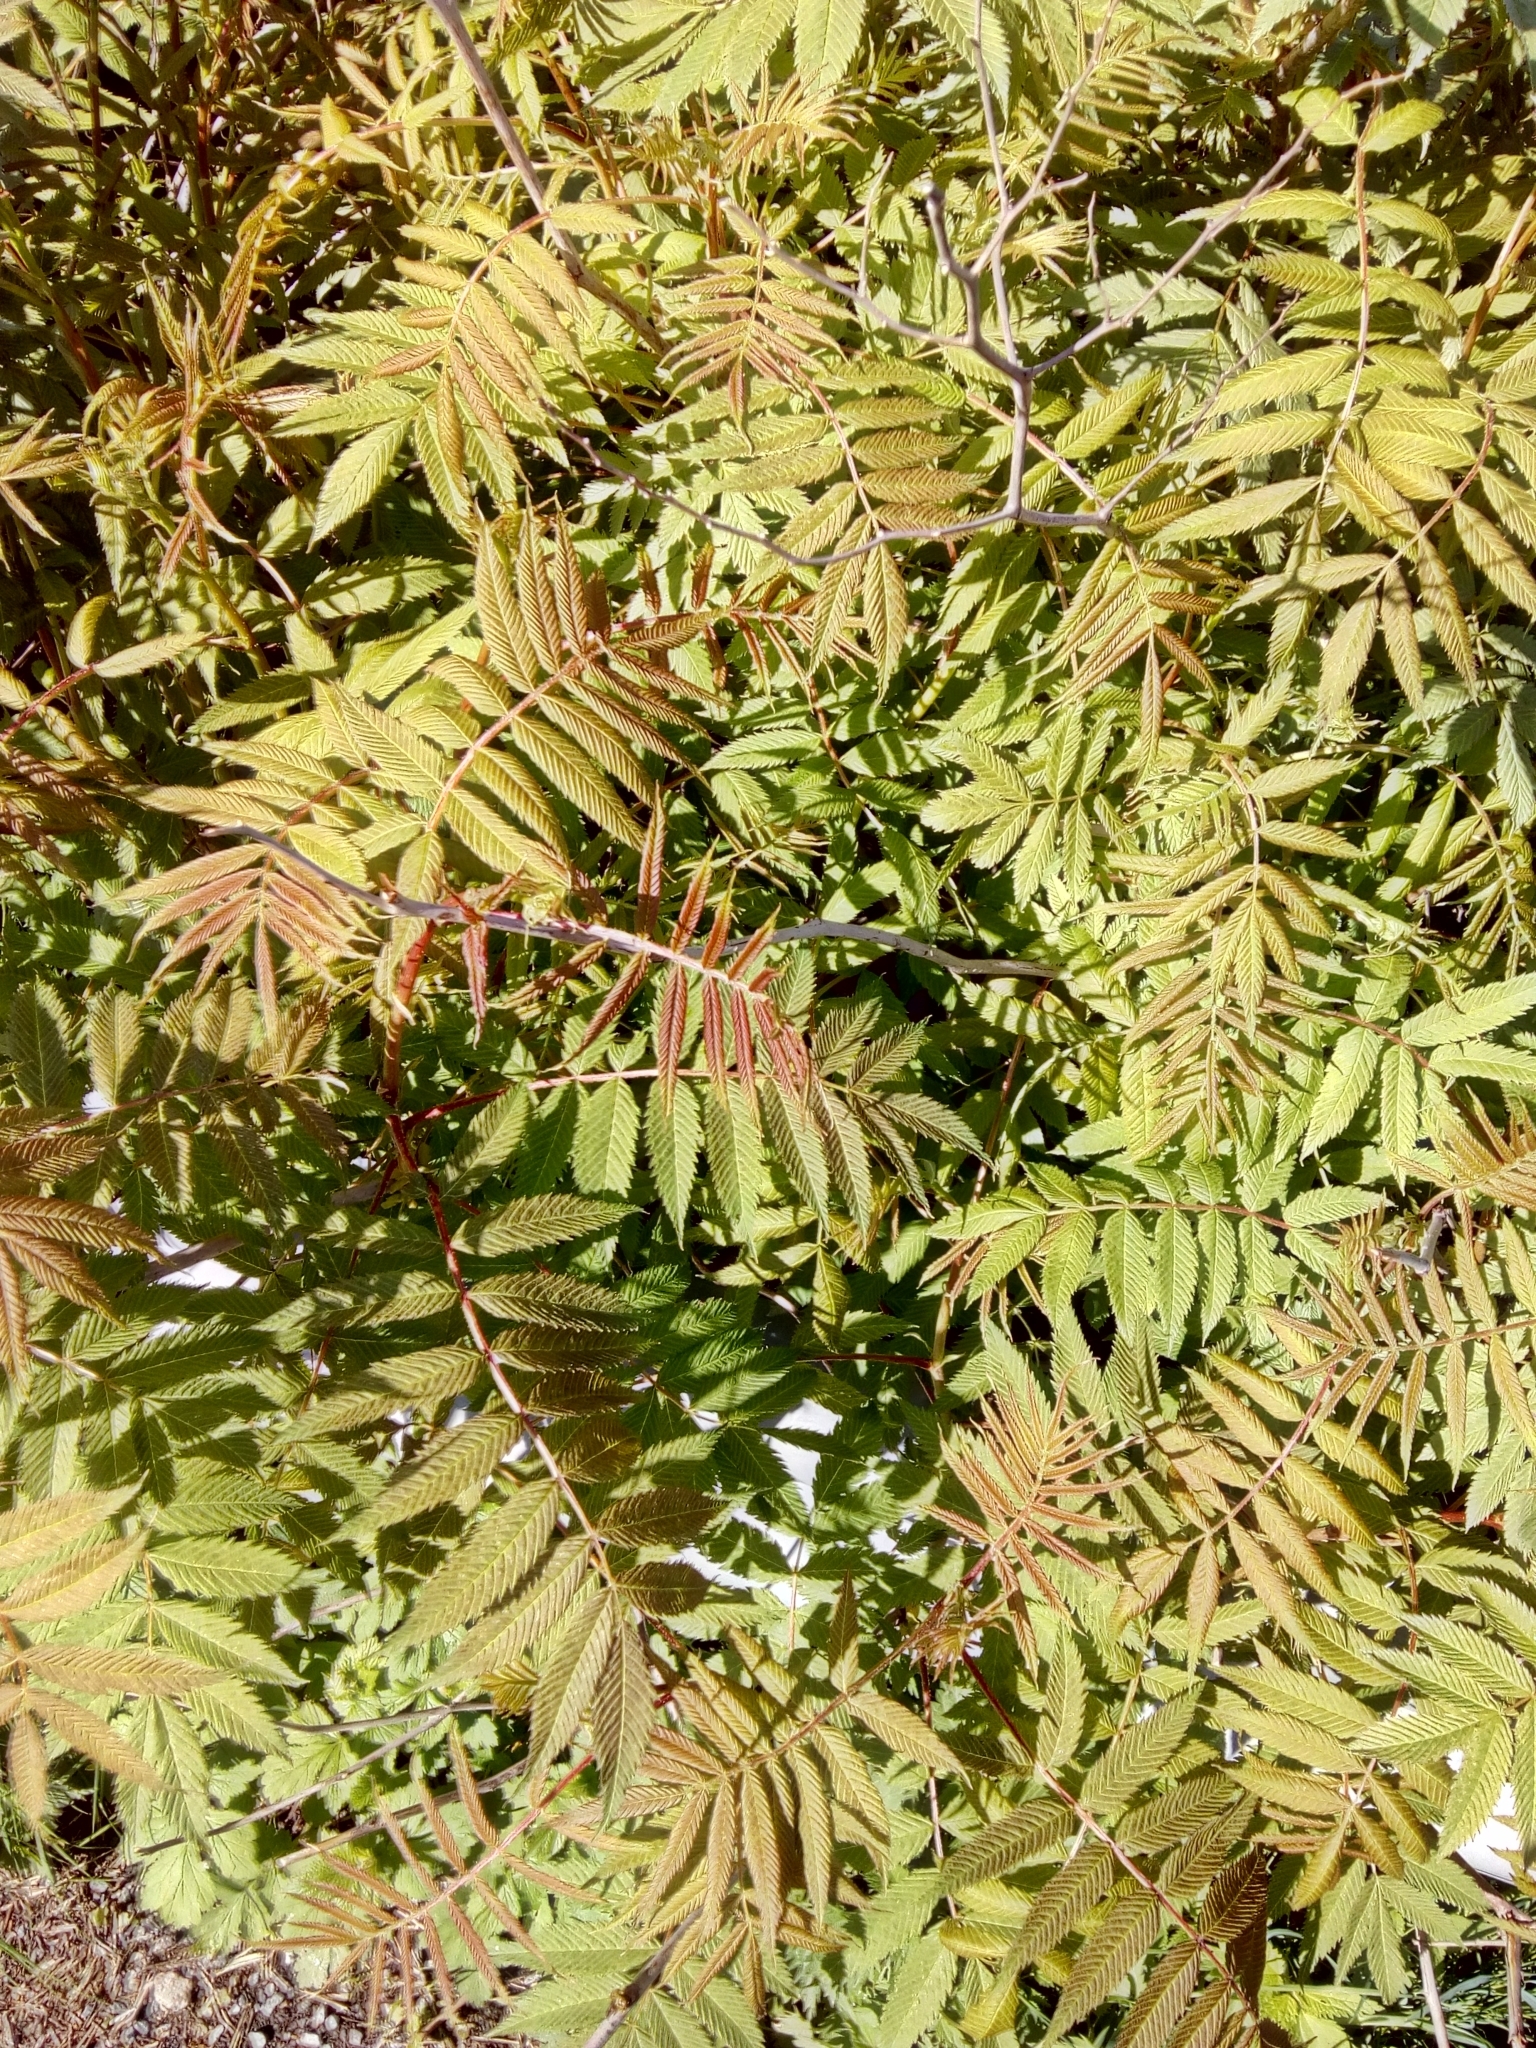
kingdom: Plantae
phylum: Tracheophyta
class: Magnoliopsida
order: Rosales
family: Rosaceae
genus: Sorbaria
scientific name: Sorbaria sorbifolia
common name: False spiraea
